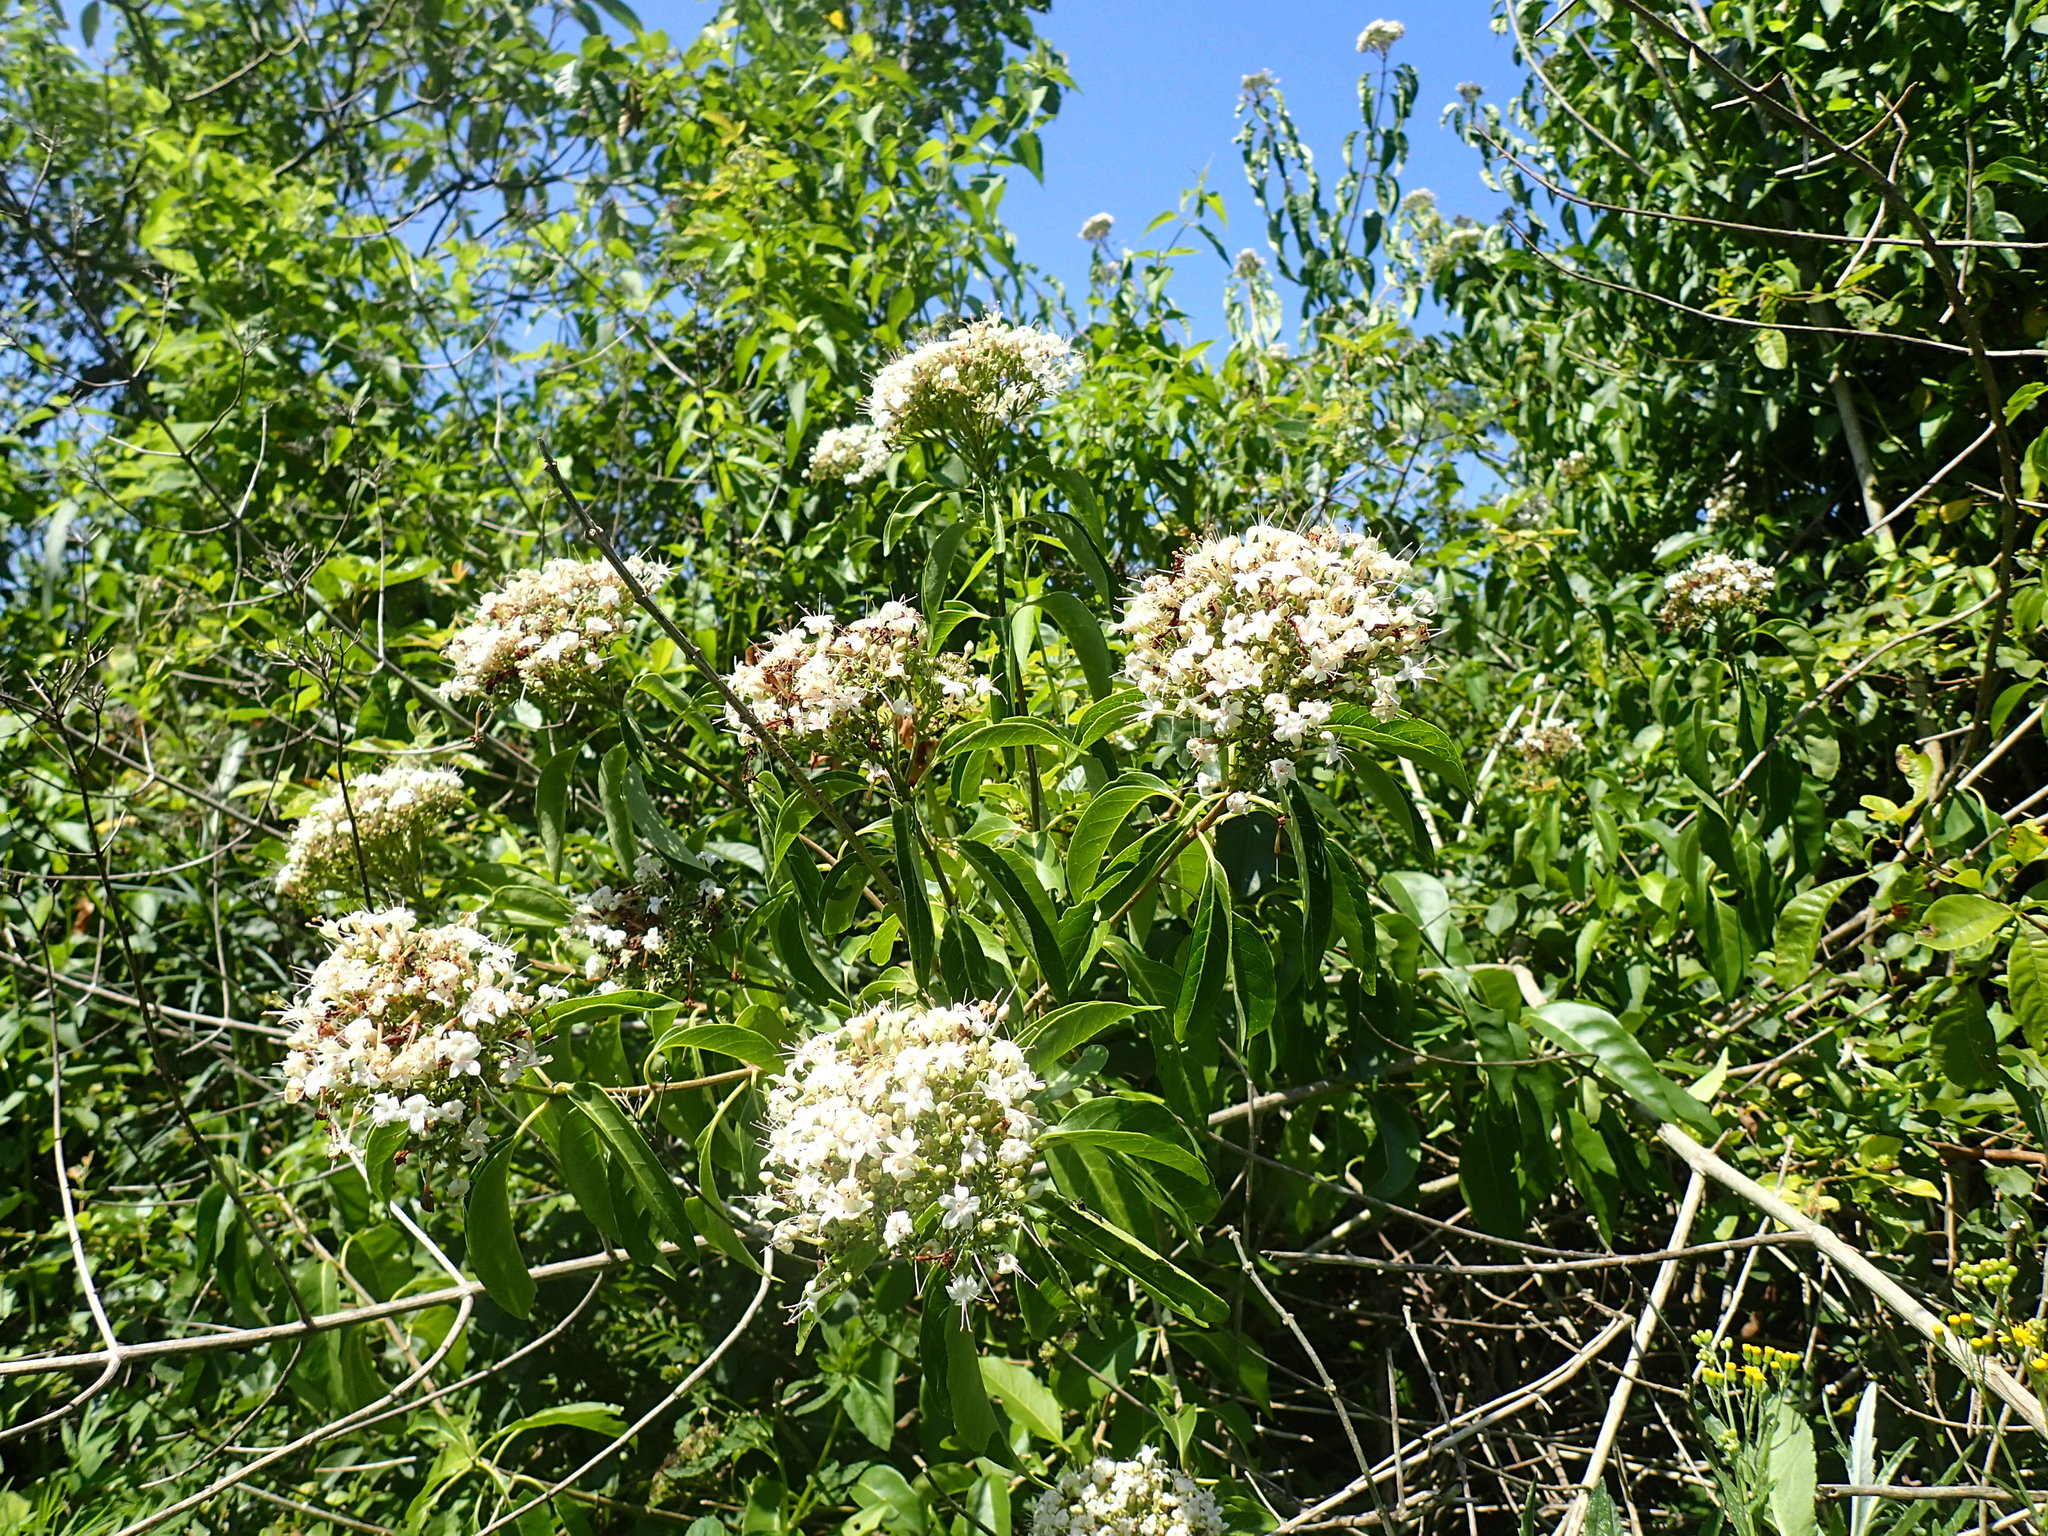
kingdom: Plantae
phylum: Tracheophyta
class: Magnoliopsida
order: Lamiales
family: Lamiaceae
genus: Volkameria
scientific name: Volkameria glabra
